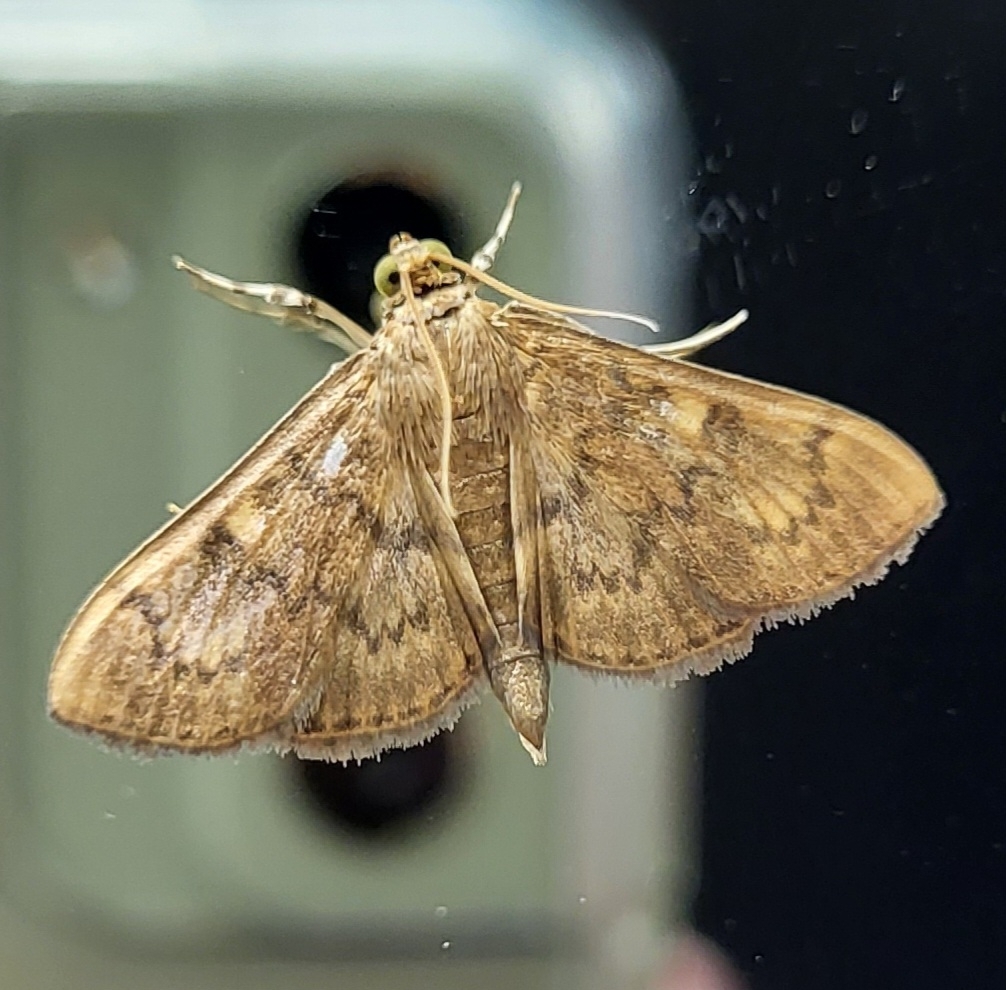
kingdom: Animalia
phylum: Arthropoda
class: Insecta
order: Lepidoptera
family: Crambidae
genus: Syllepte
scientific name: Syllepte obscuralis
